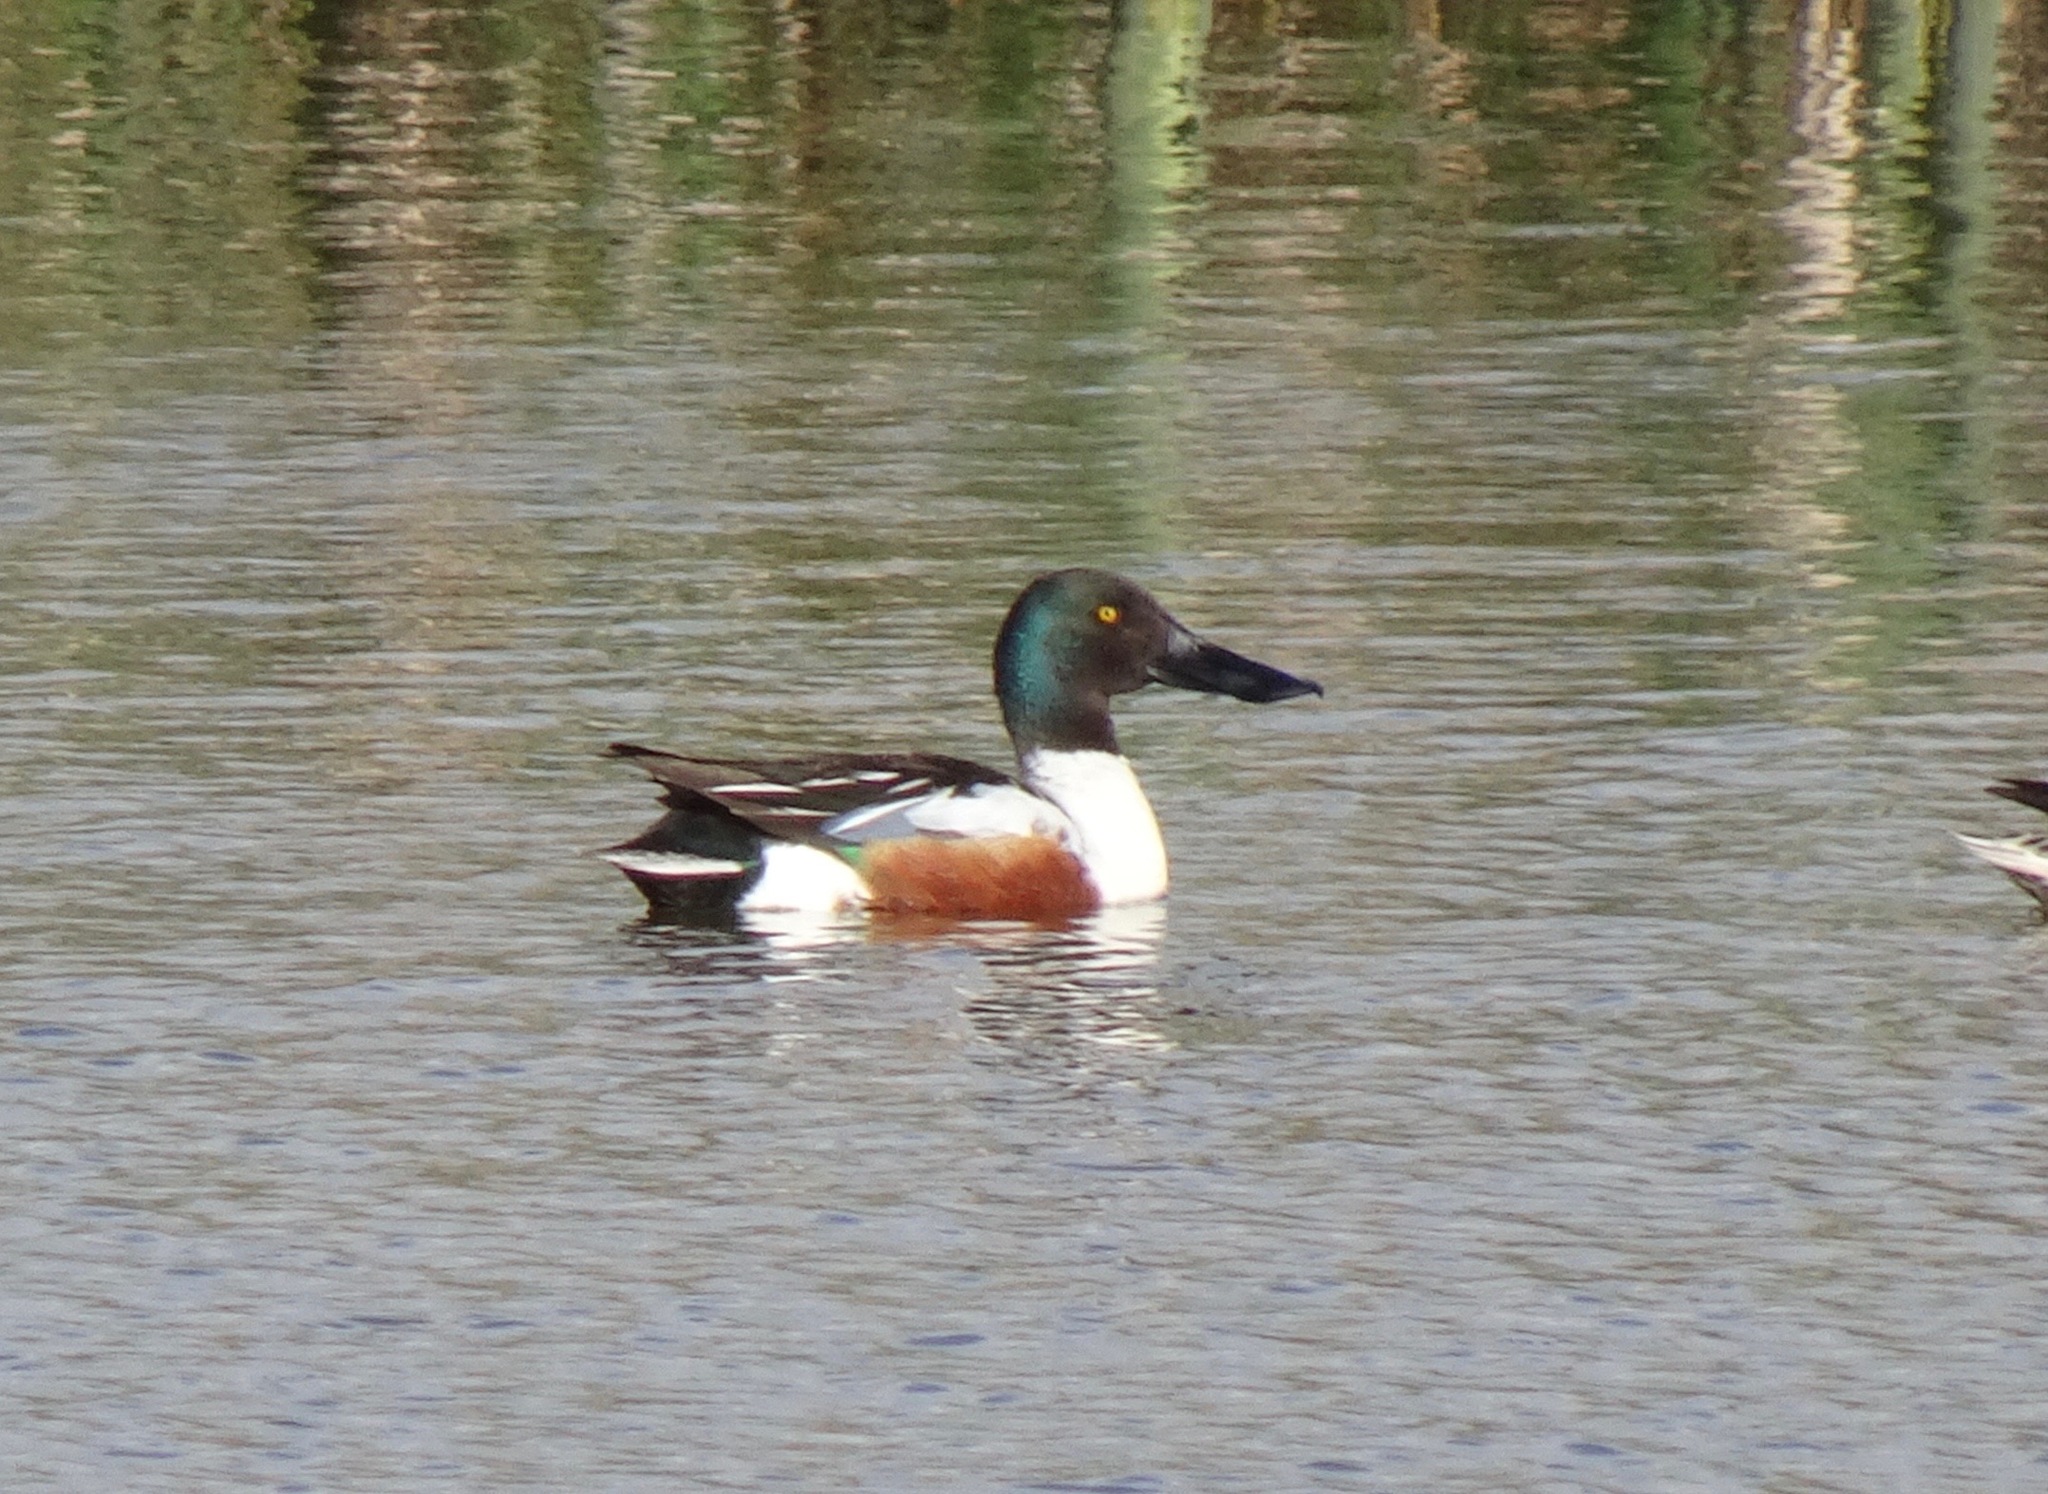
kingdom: Animalia
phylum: Chordata
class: Aves
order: Anseriformes
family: Anatidae
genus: Spatula
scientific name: Spatula clypeata
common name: Northern shoveler
